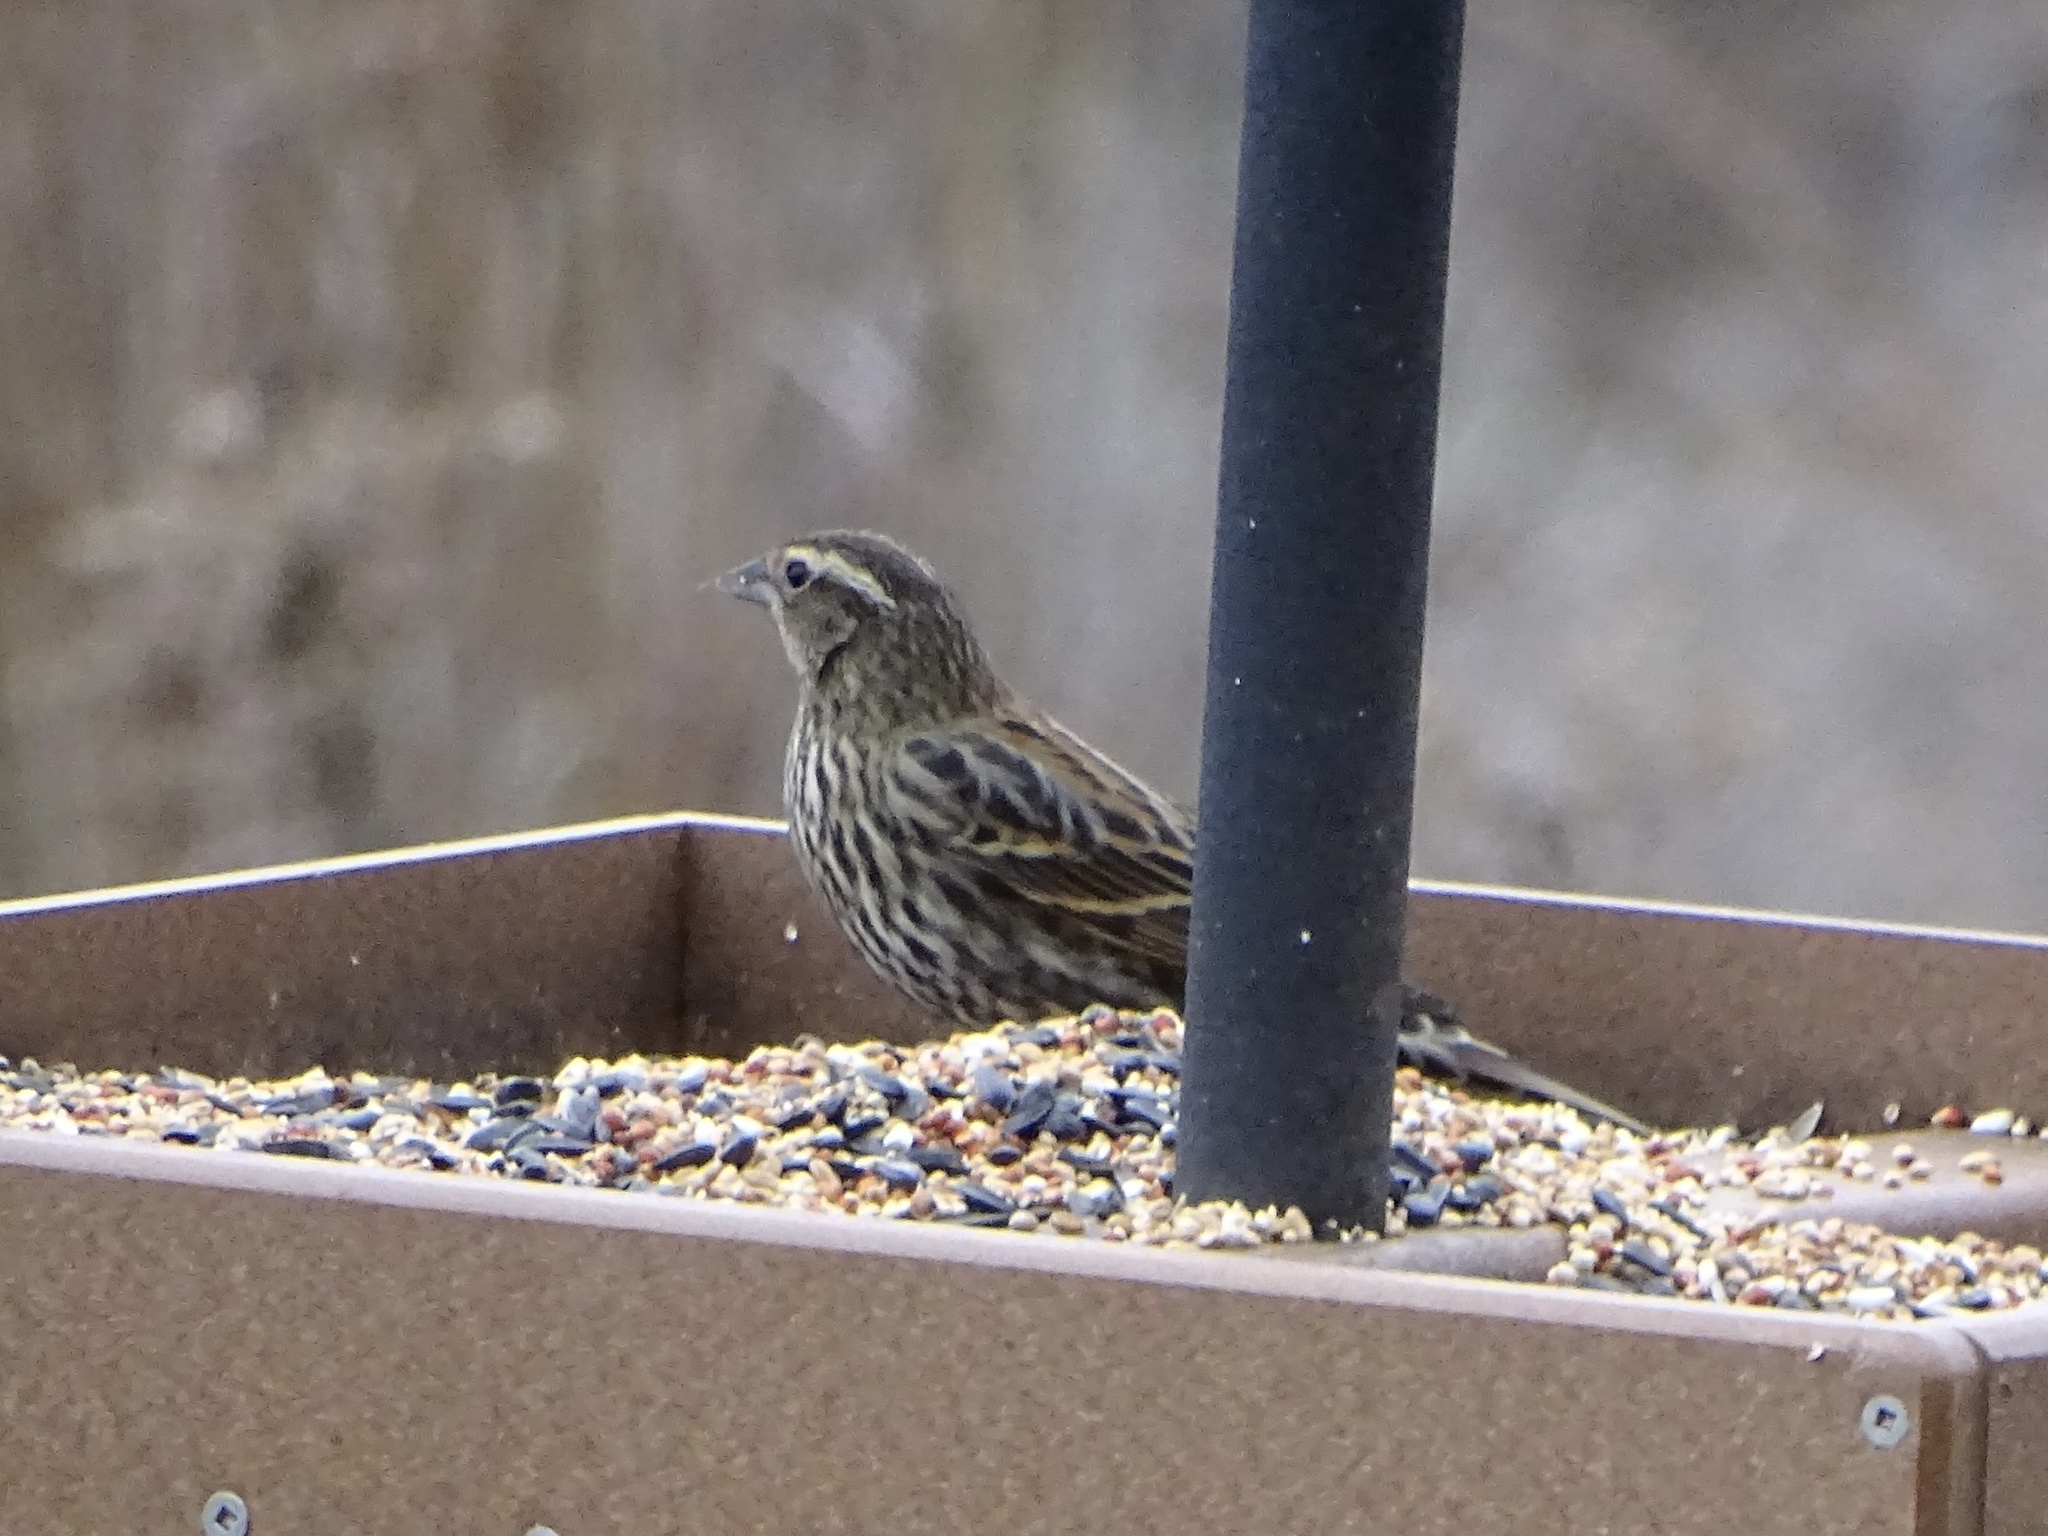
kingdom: Animalia
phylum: Chordata
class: Aves
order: Passeriformes
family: Icteridae
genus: Agelaius
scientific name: Agelaius phoeniceus
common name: Red-winged blackbird
